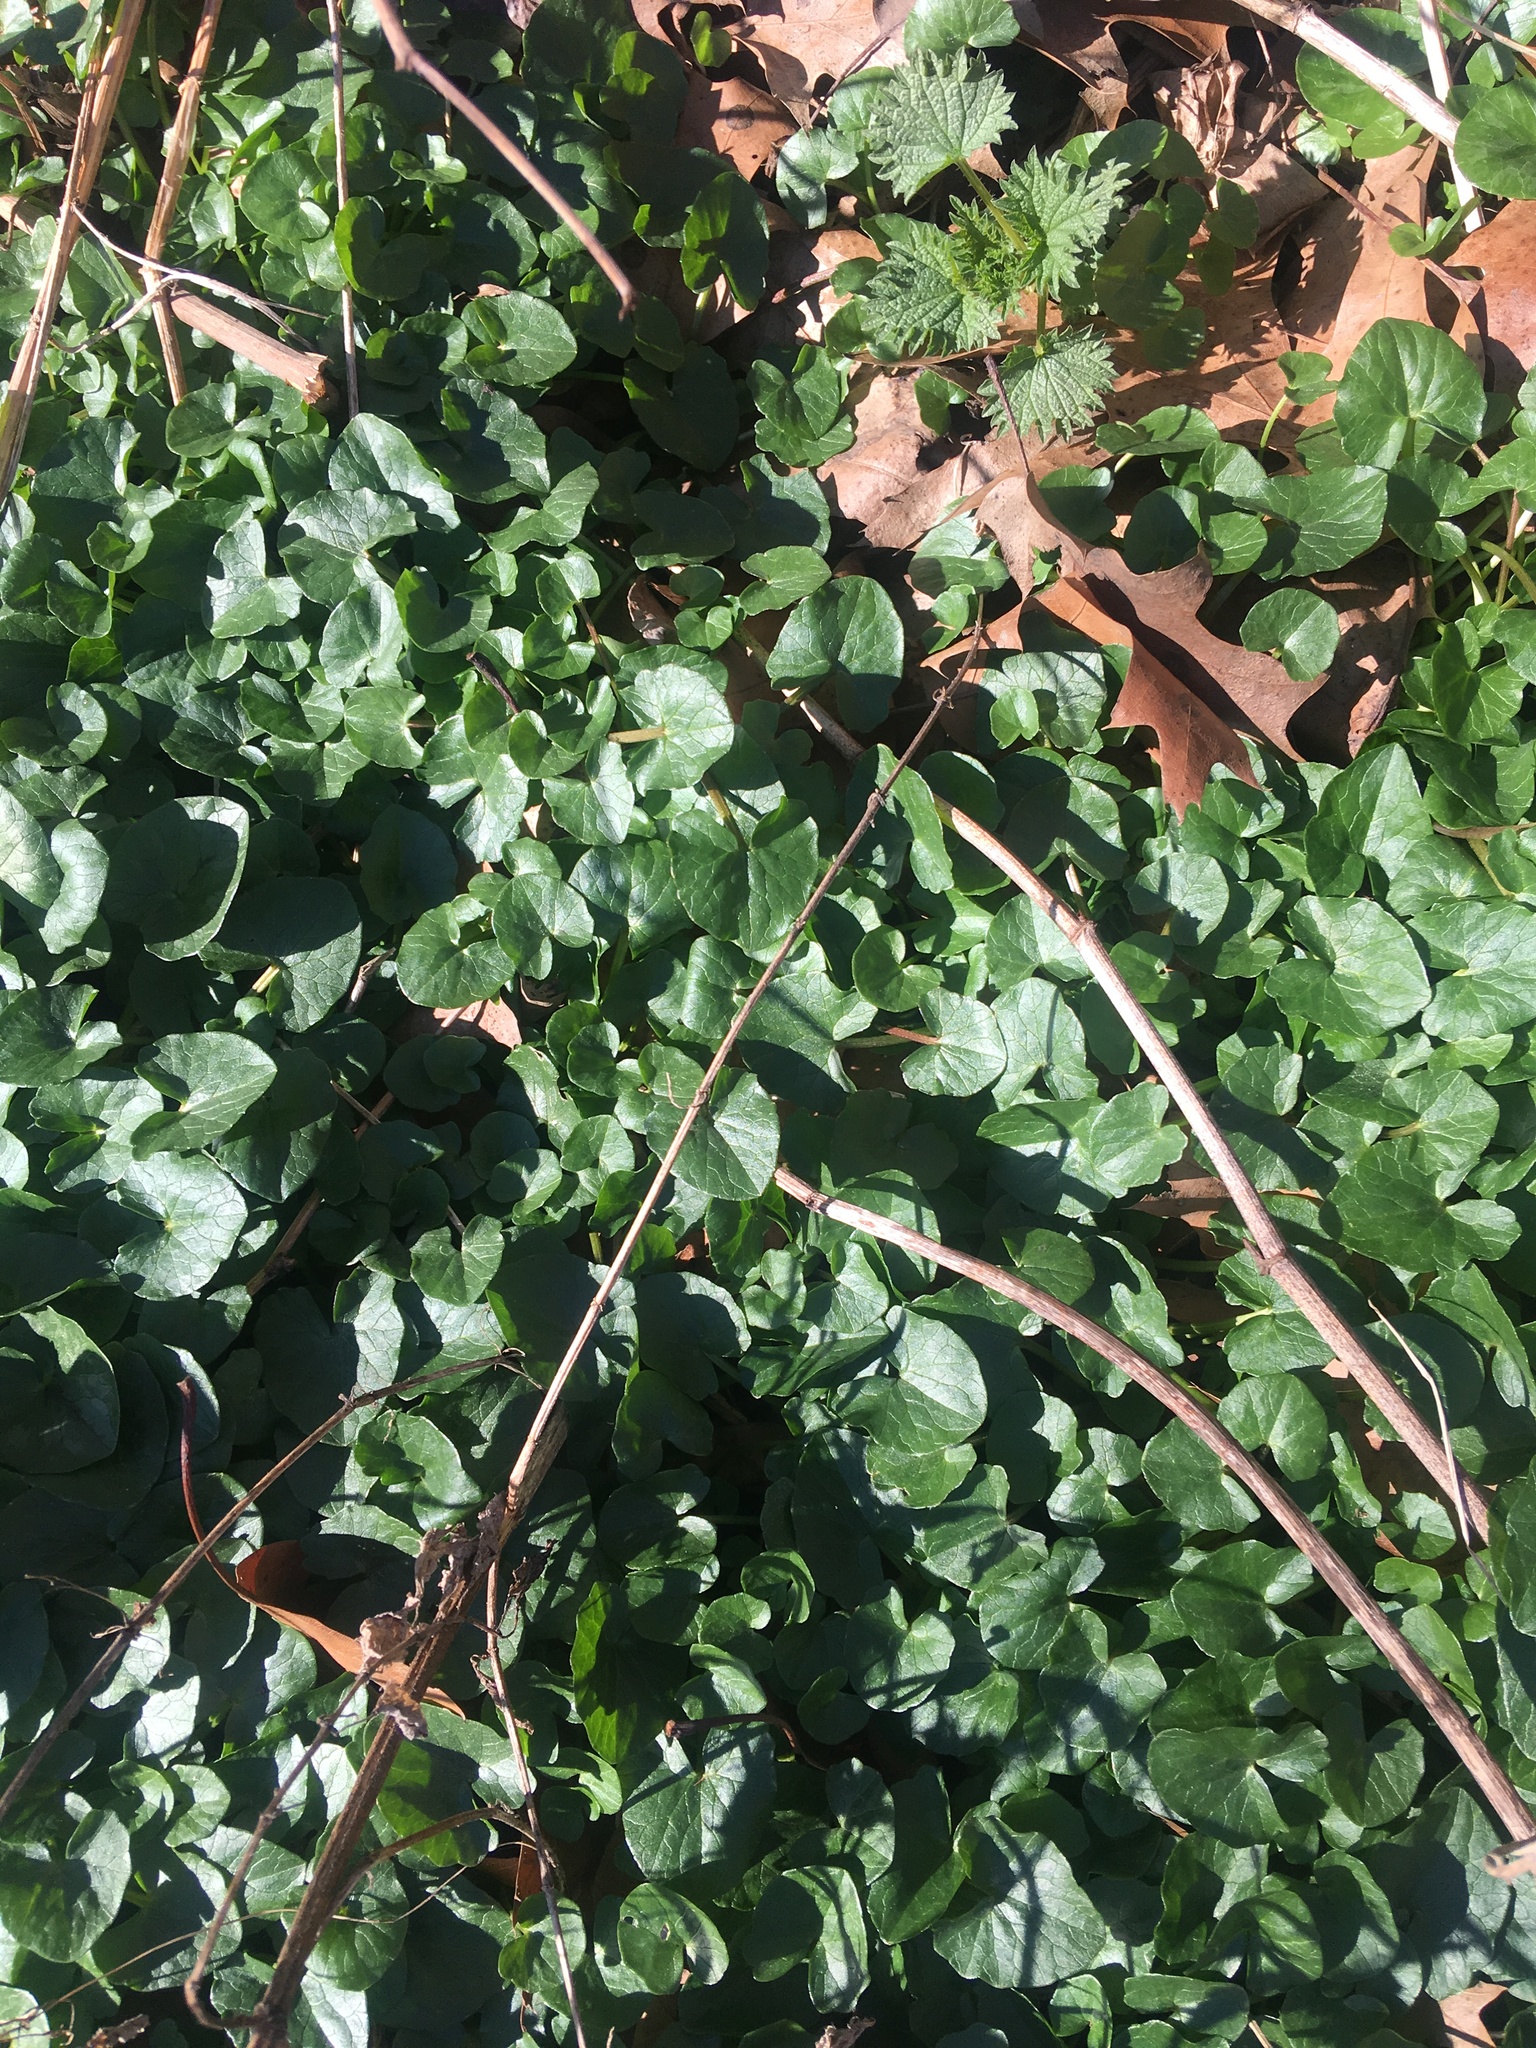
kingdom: Plantae
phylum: Tracheophyta
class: Magnoliopsida
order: Ranunculales
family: Ranunculaceae
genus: Ficaria
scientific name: Ficaria verna
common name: Lesser celandine
